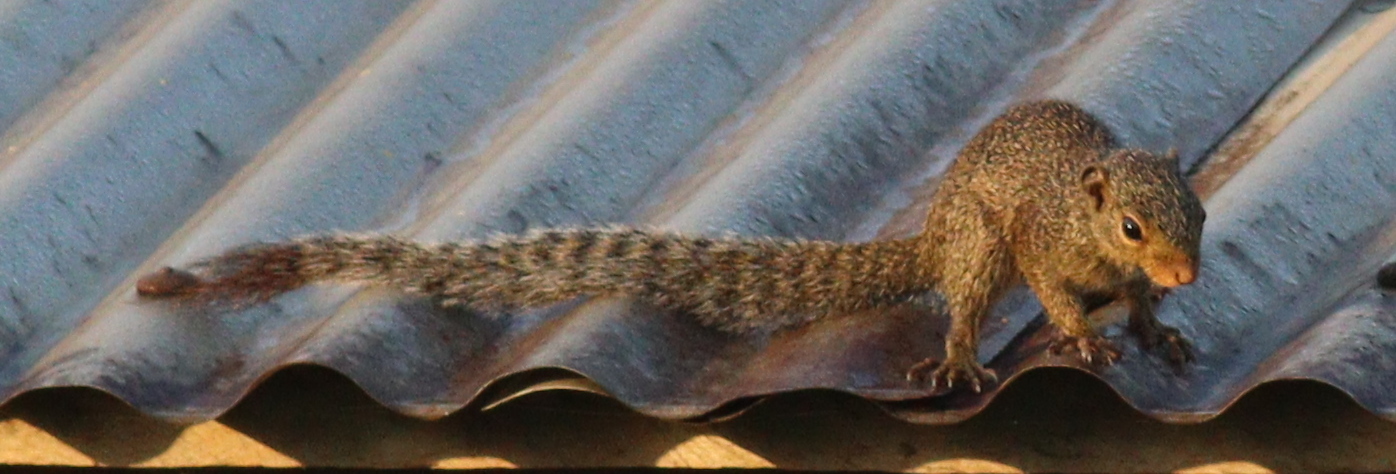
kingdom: Animalia
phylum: Chordata
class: Mammalia
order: Rodentia
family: Sciuridae
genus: Heliosciurus
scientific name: Heliosciurus punctatus
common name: Small sun squirrel
